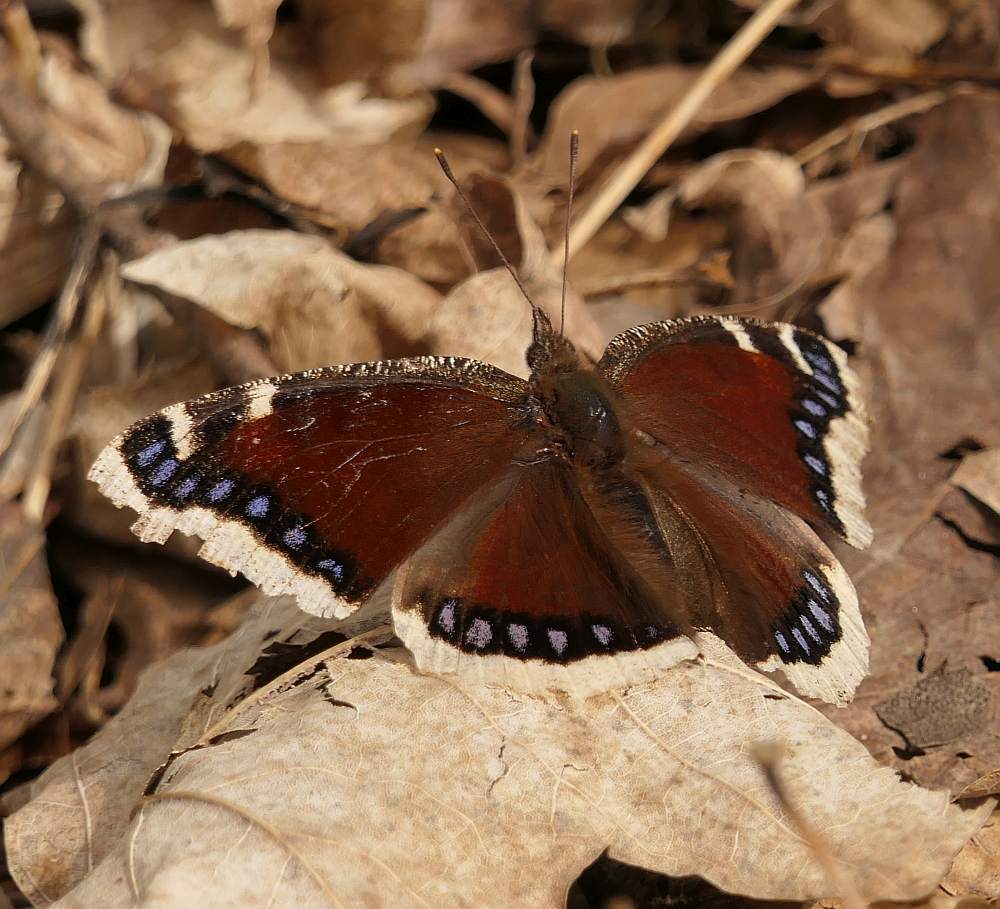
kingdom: Animalia
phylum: Arthropoda
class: Insecta
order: Lepidoptera
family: Nymphalidae
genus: Nymphalis
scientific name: Nymphalis antiopa
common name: Camberwell beauty
